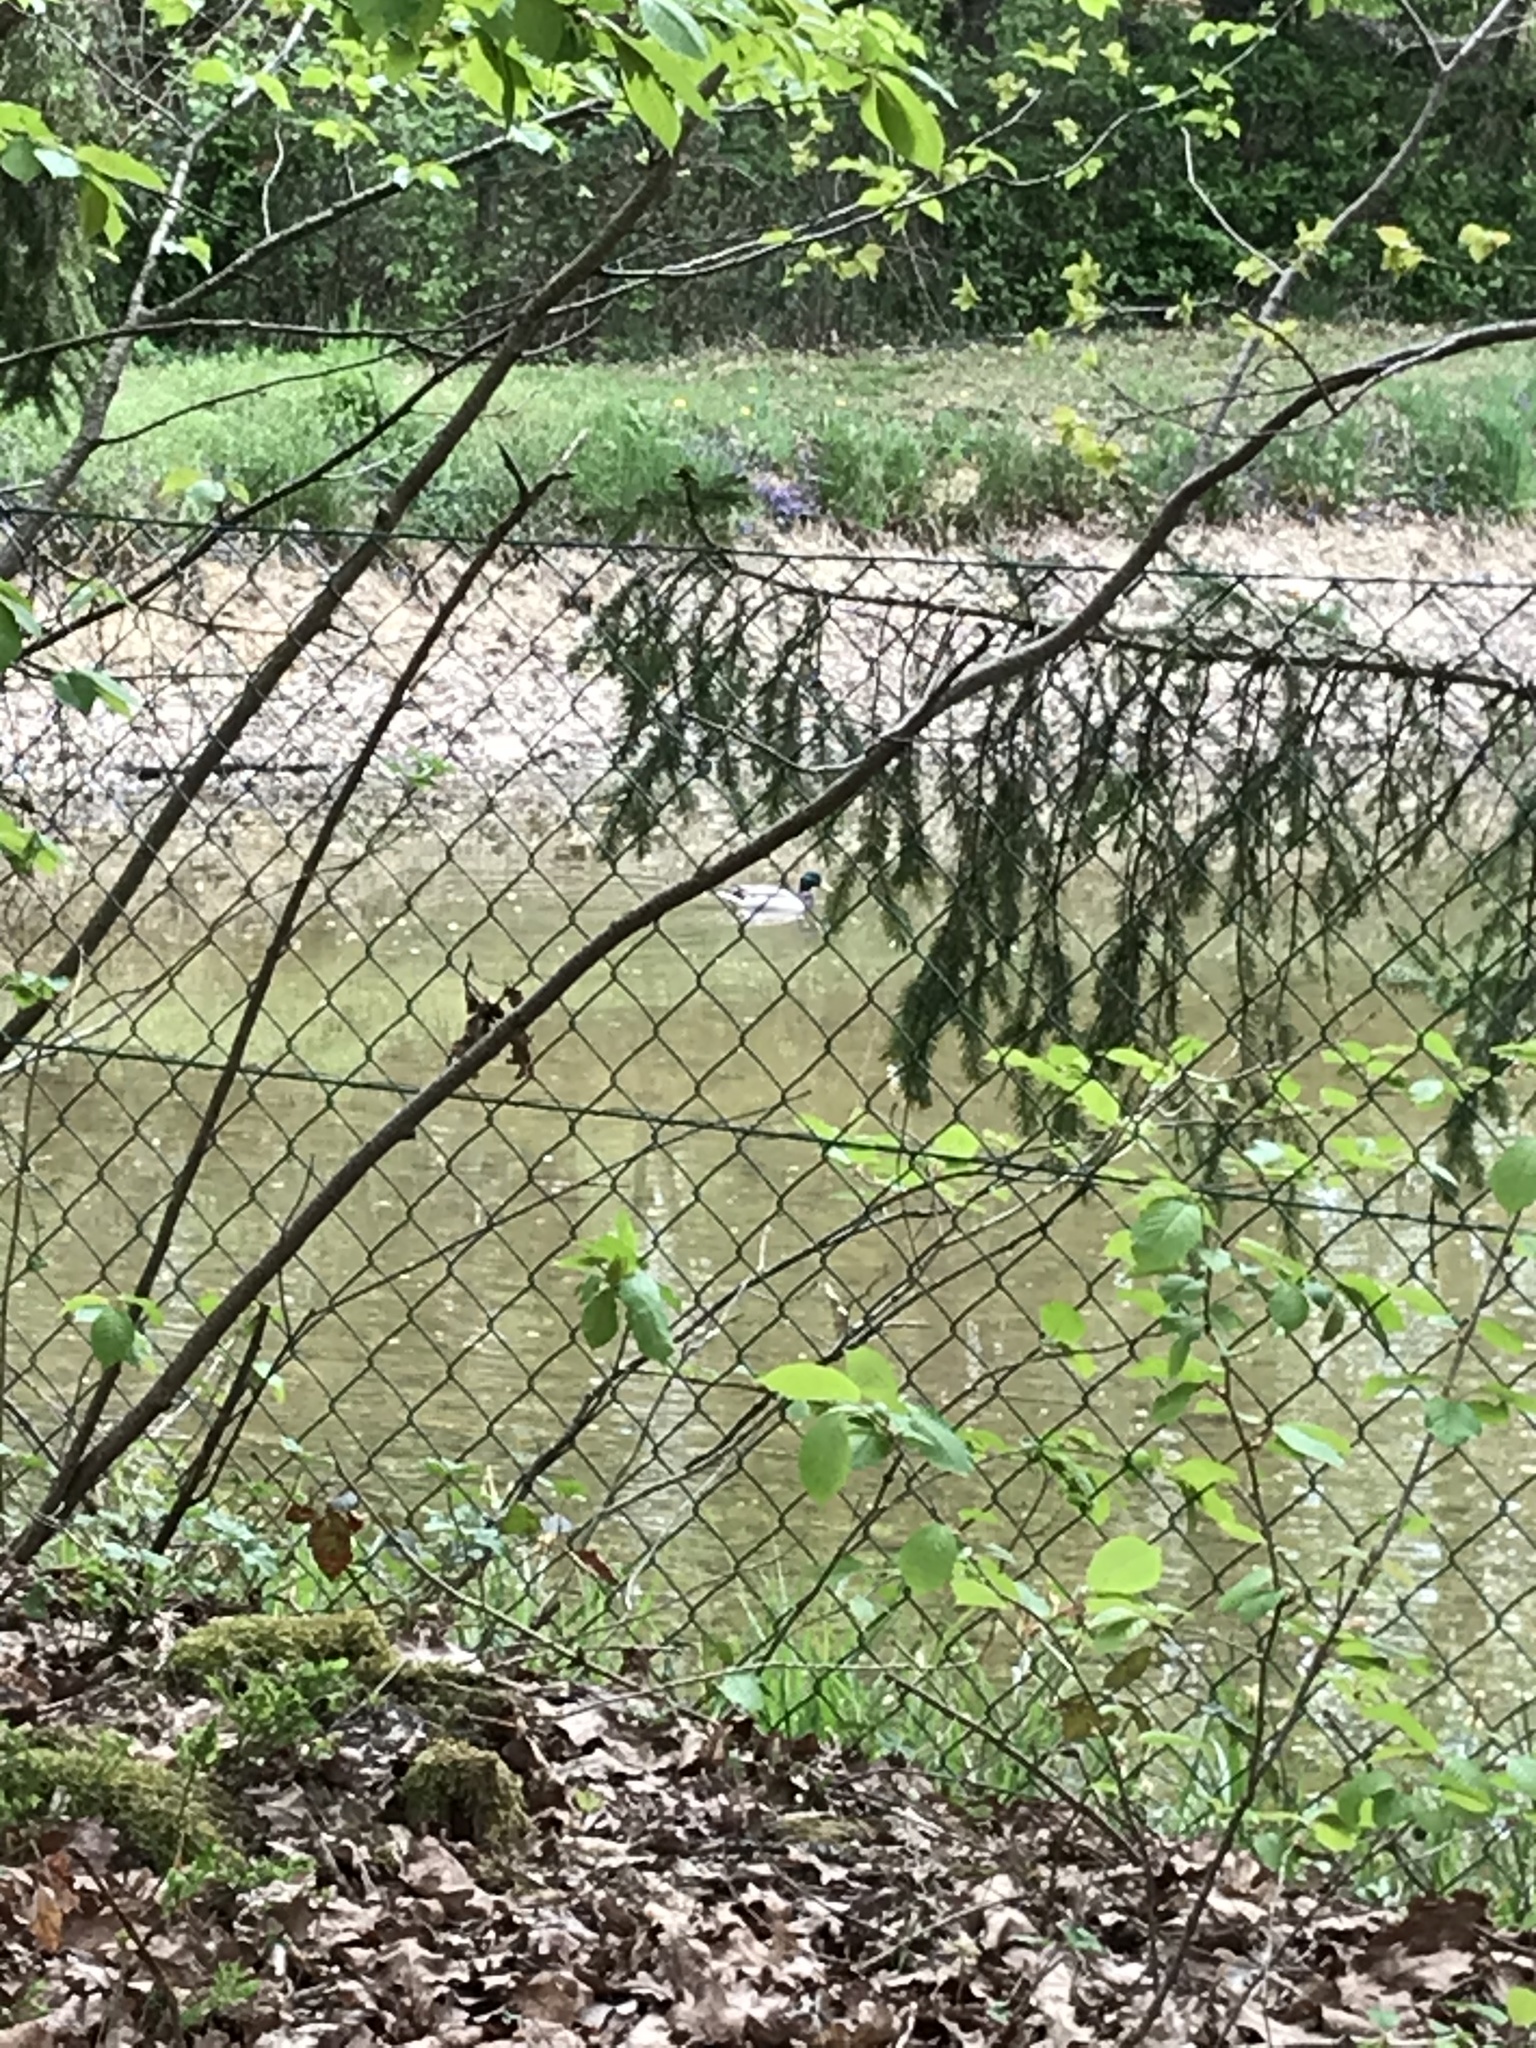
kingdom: Animalia
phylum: Chordata
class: Aves
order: Anseriformes
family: Anatidae
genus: Anas
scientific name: Anas platyrhynchos
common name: Mallard
